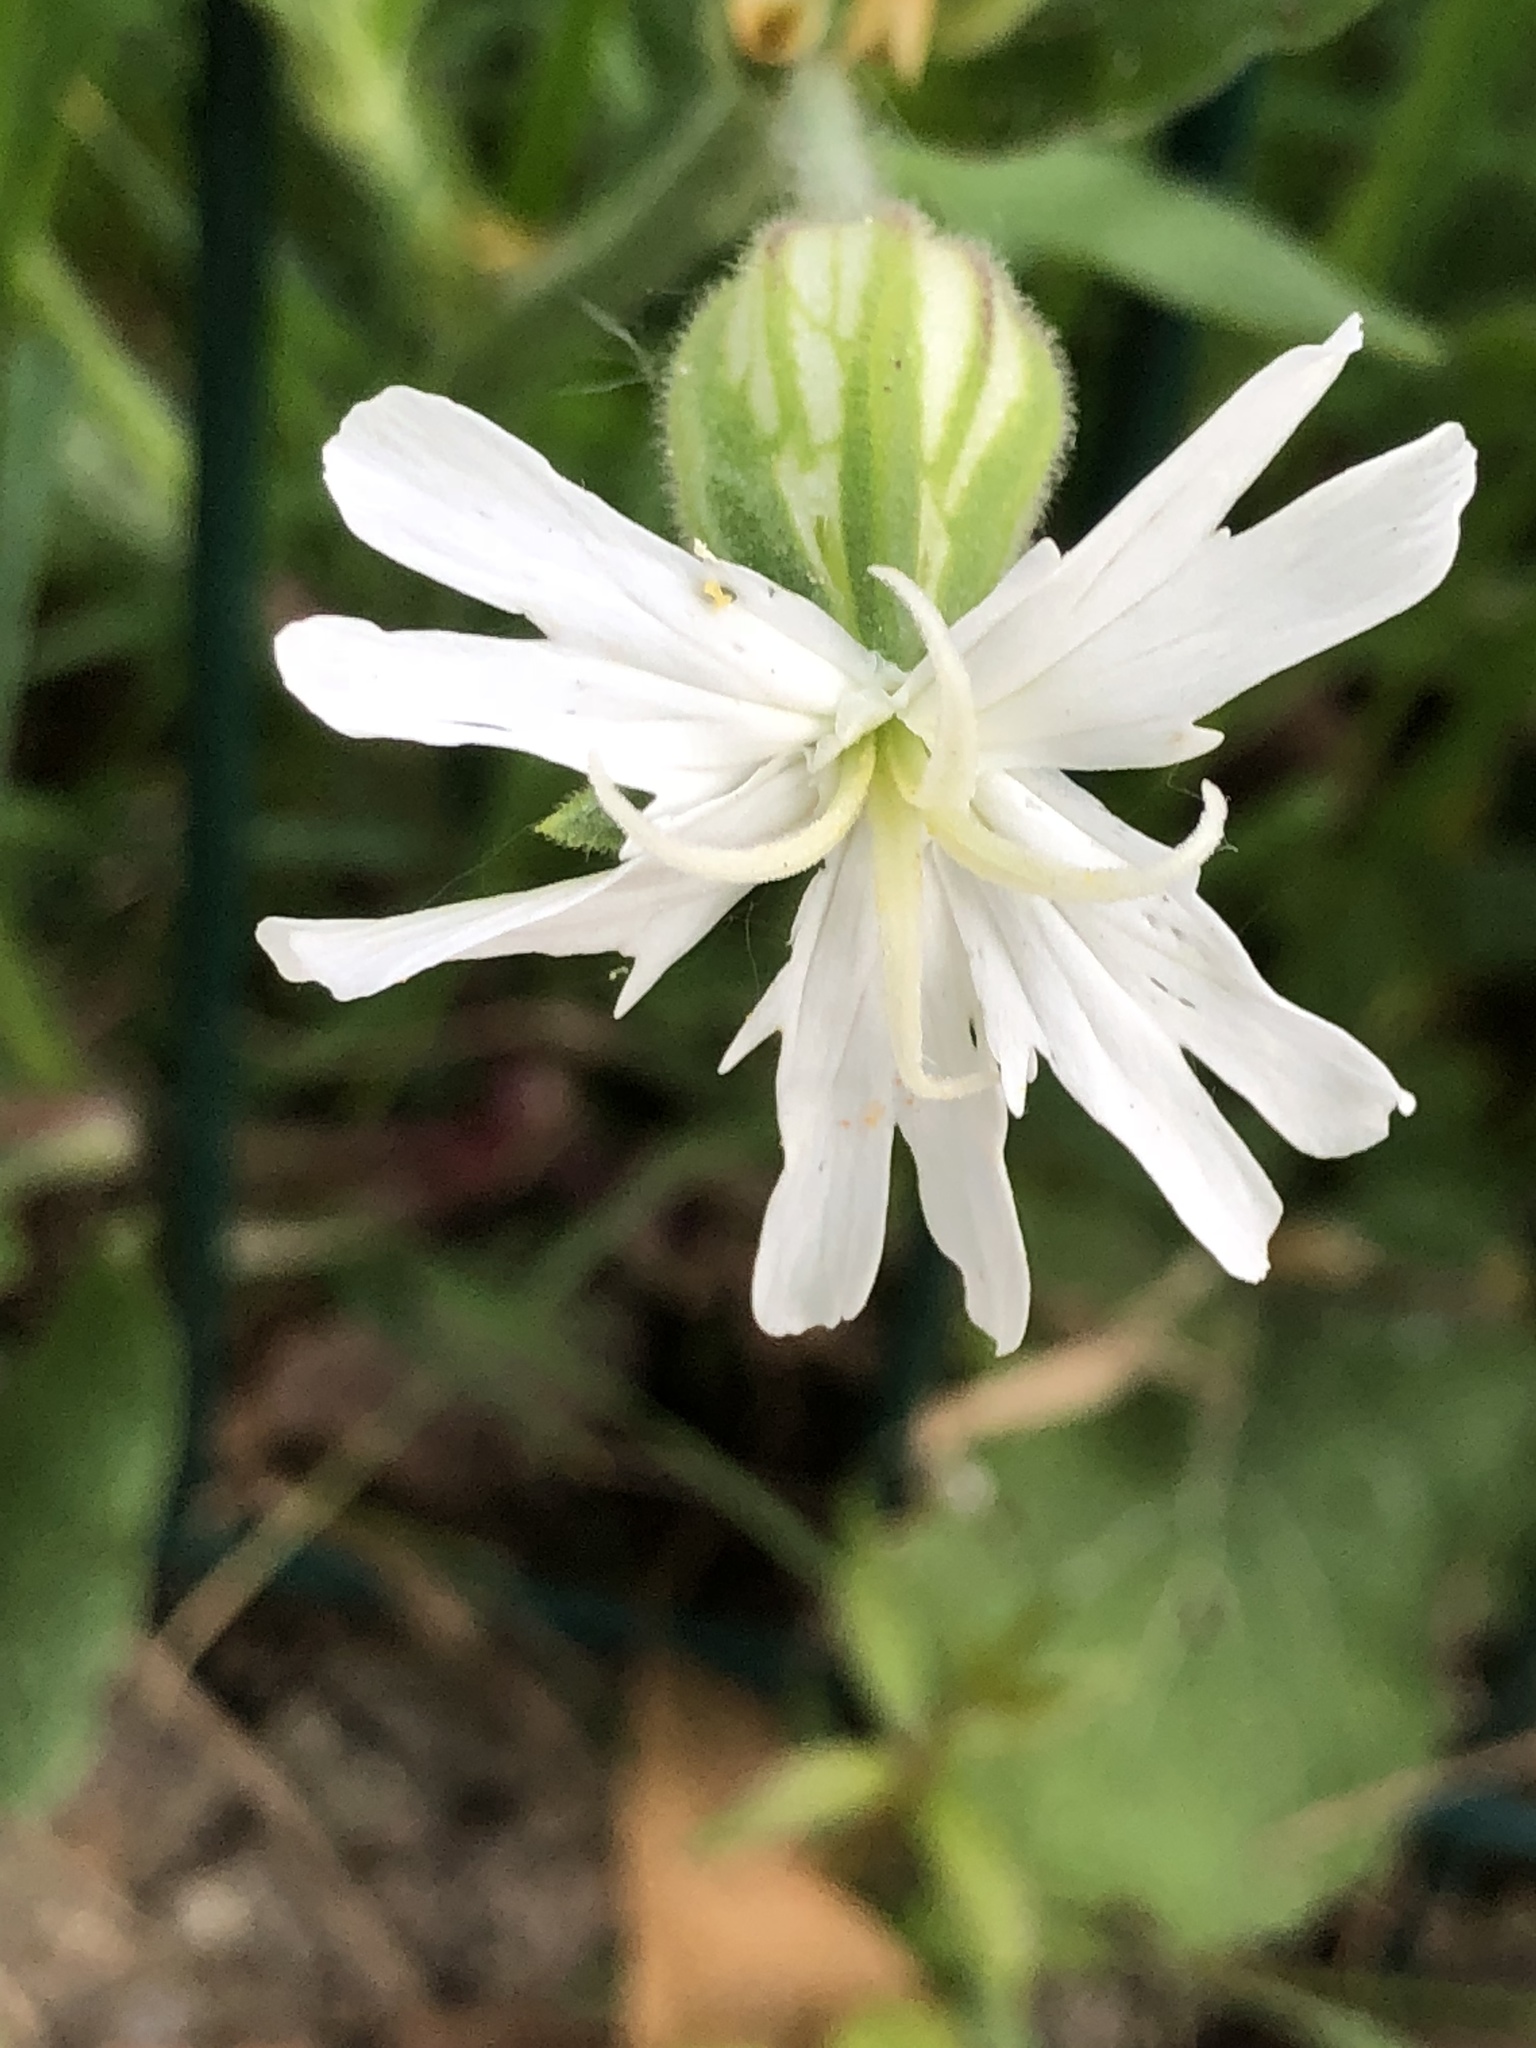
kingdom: Plantae
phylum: Tracheophyta
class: Magnoliopsida
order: Caryophyllales
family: Caryophyllaceae
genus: Silene
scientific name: Silene latifolia
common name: White campion
